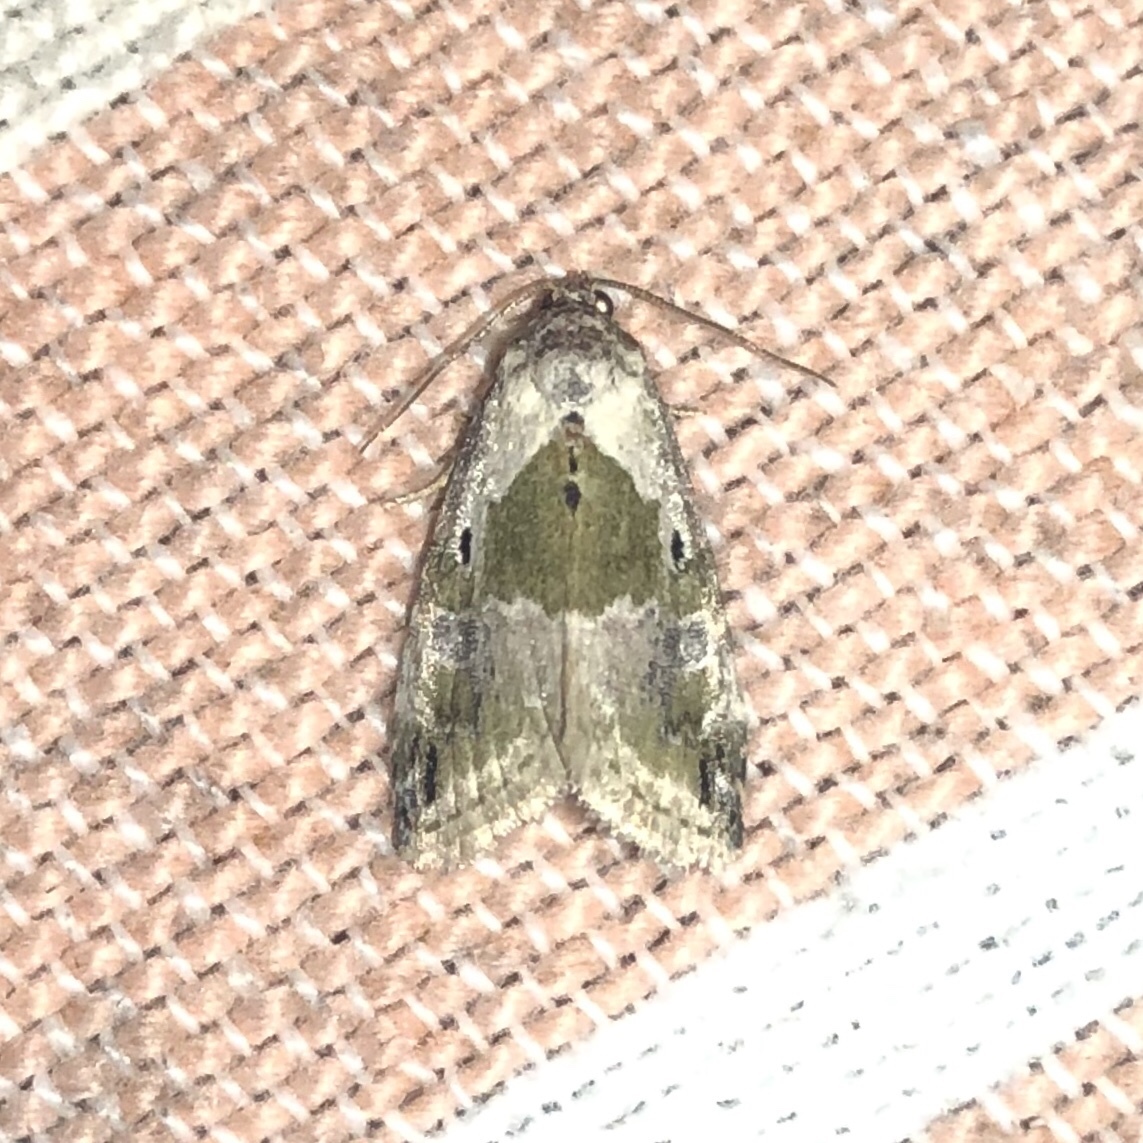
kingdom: Animalia
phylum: Arthropoda
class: Insecta
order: Lepidoptera
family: Noctuidae
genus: Maliattha
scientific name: Maliattha synochitis
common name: Black-dotted glyph
